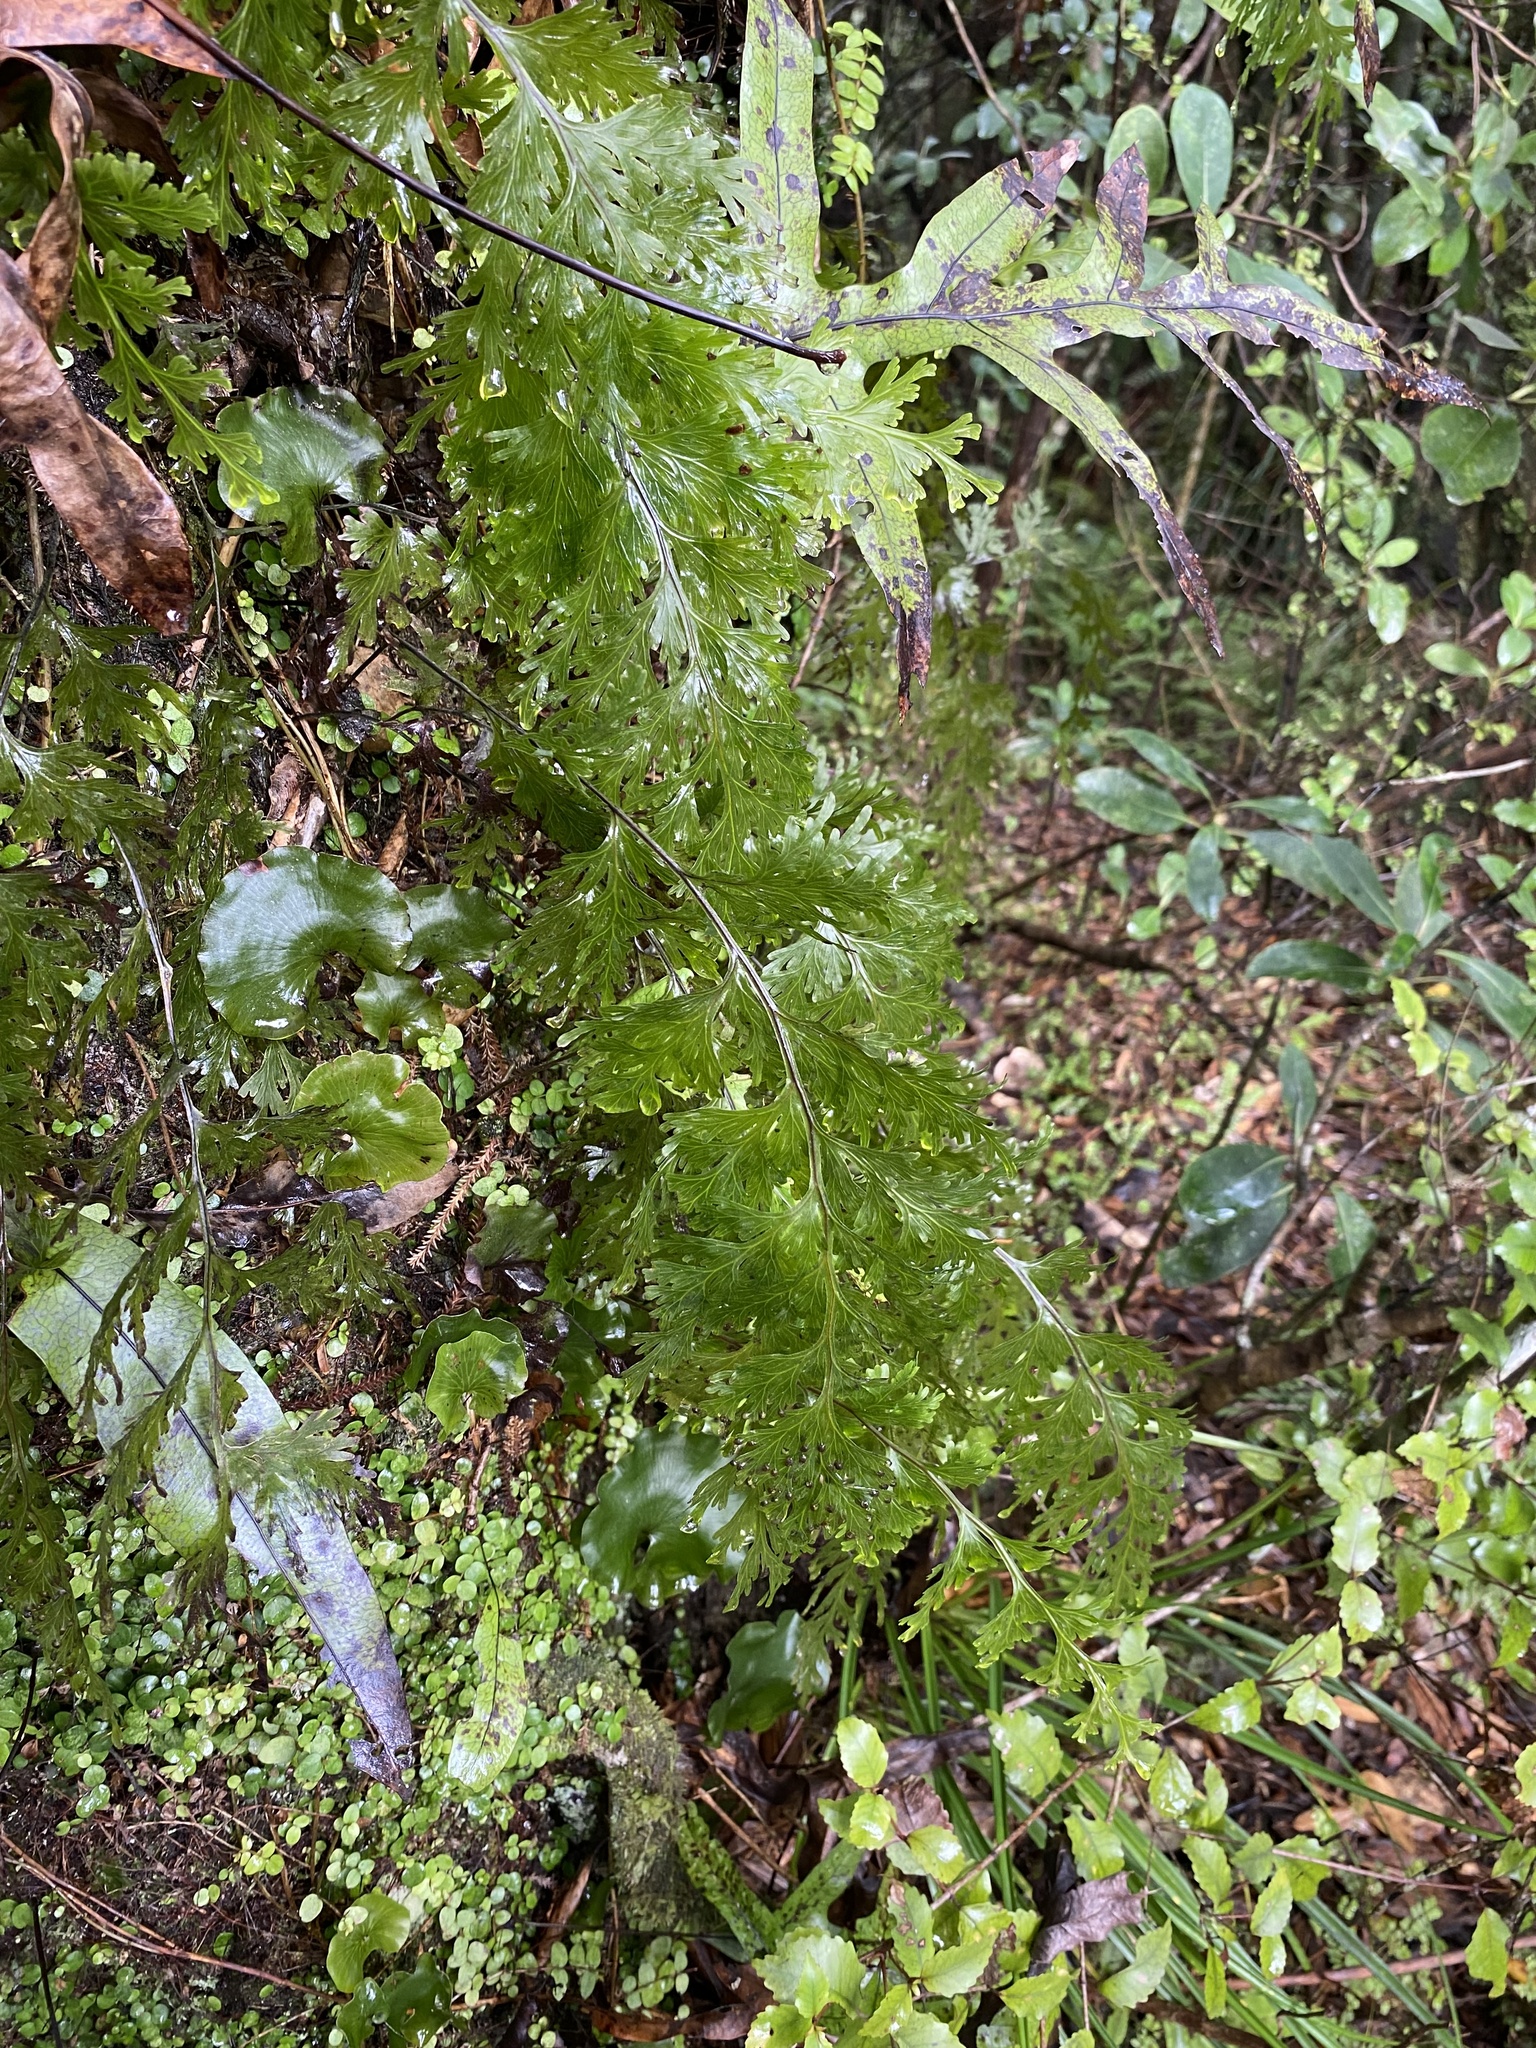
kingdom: Plantae
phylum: Tracheophyta
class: Polypodiopsida
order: Hymenophyllales
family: Hymenophyllaceae
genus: Hymenophyllum
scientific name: Hymenophyllum dilatatum
